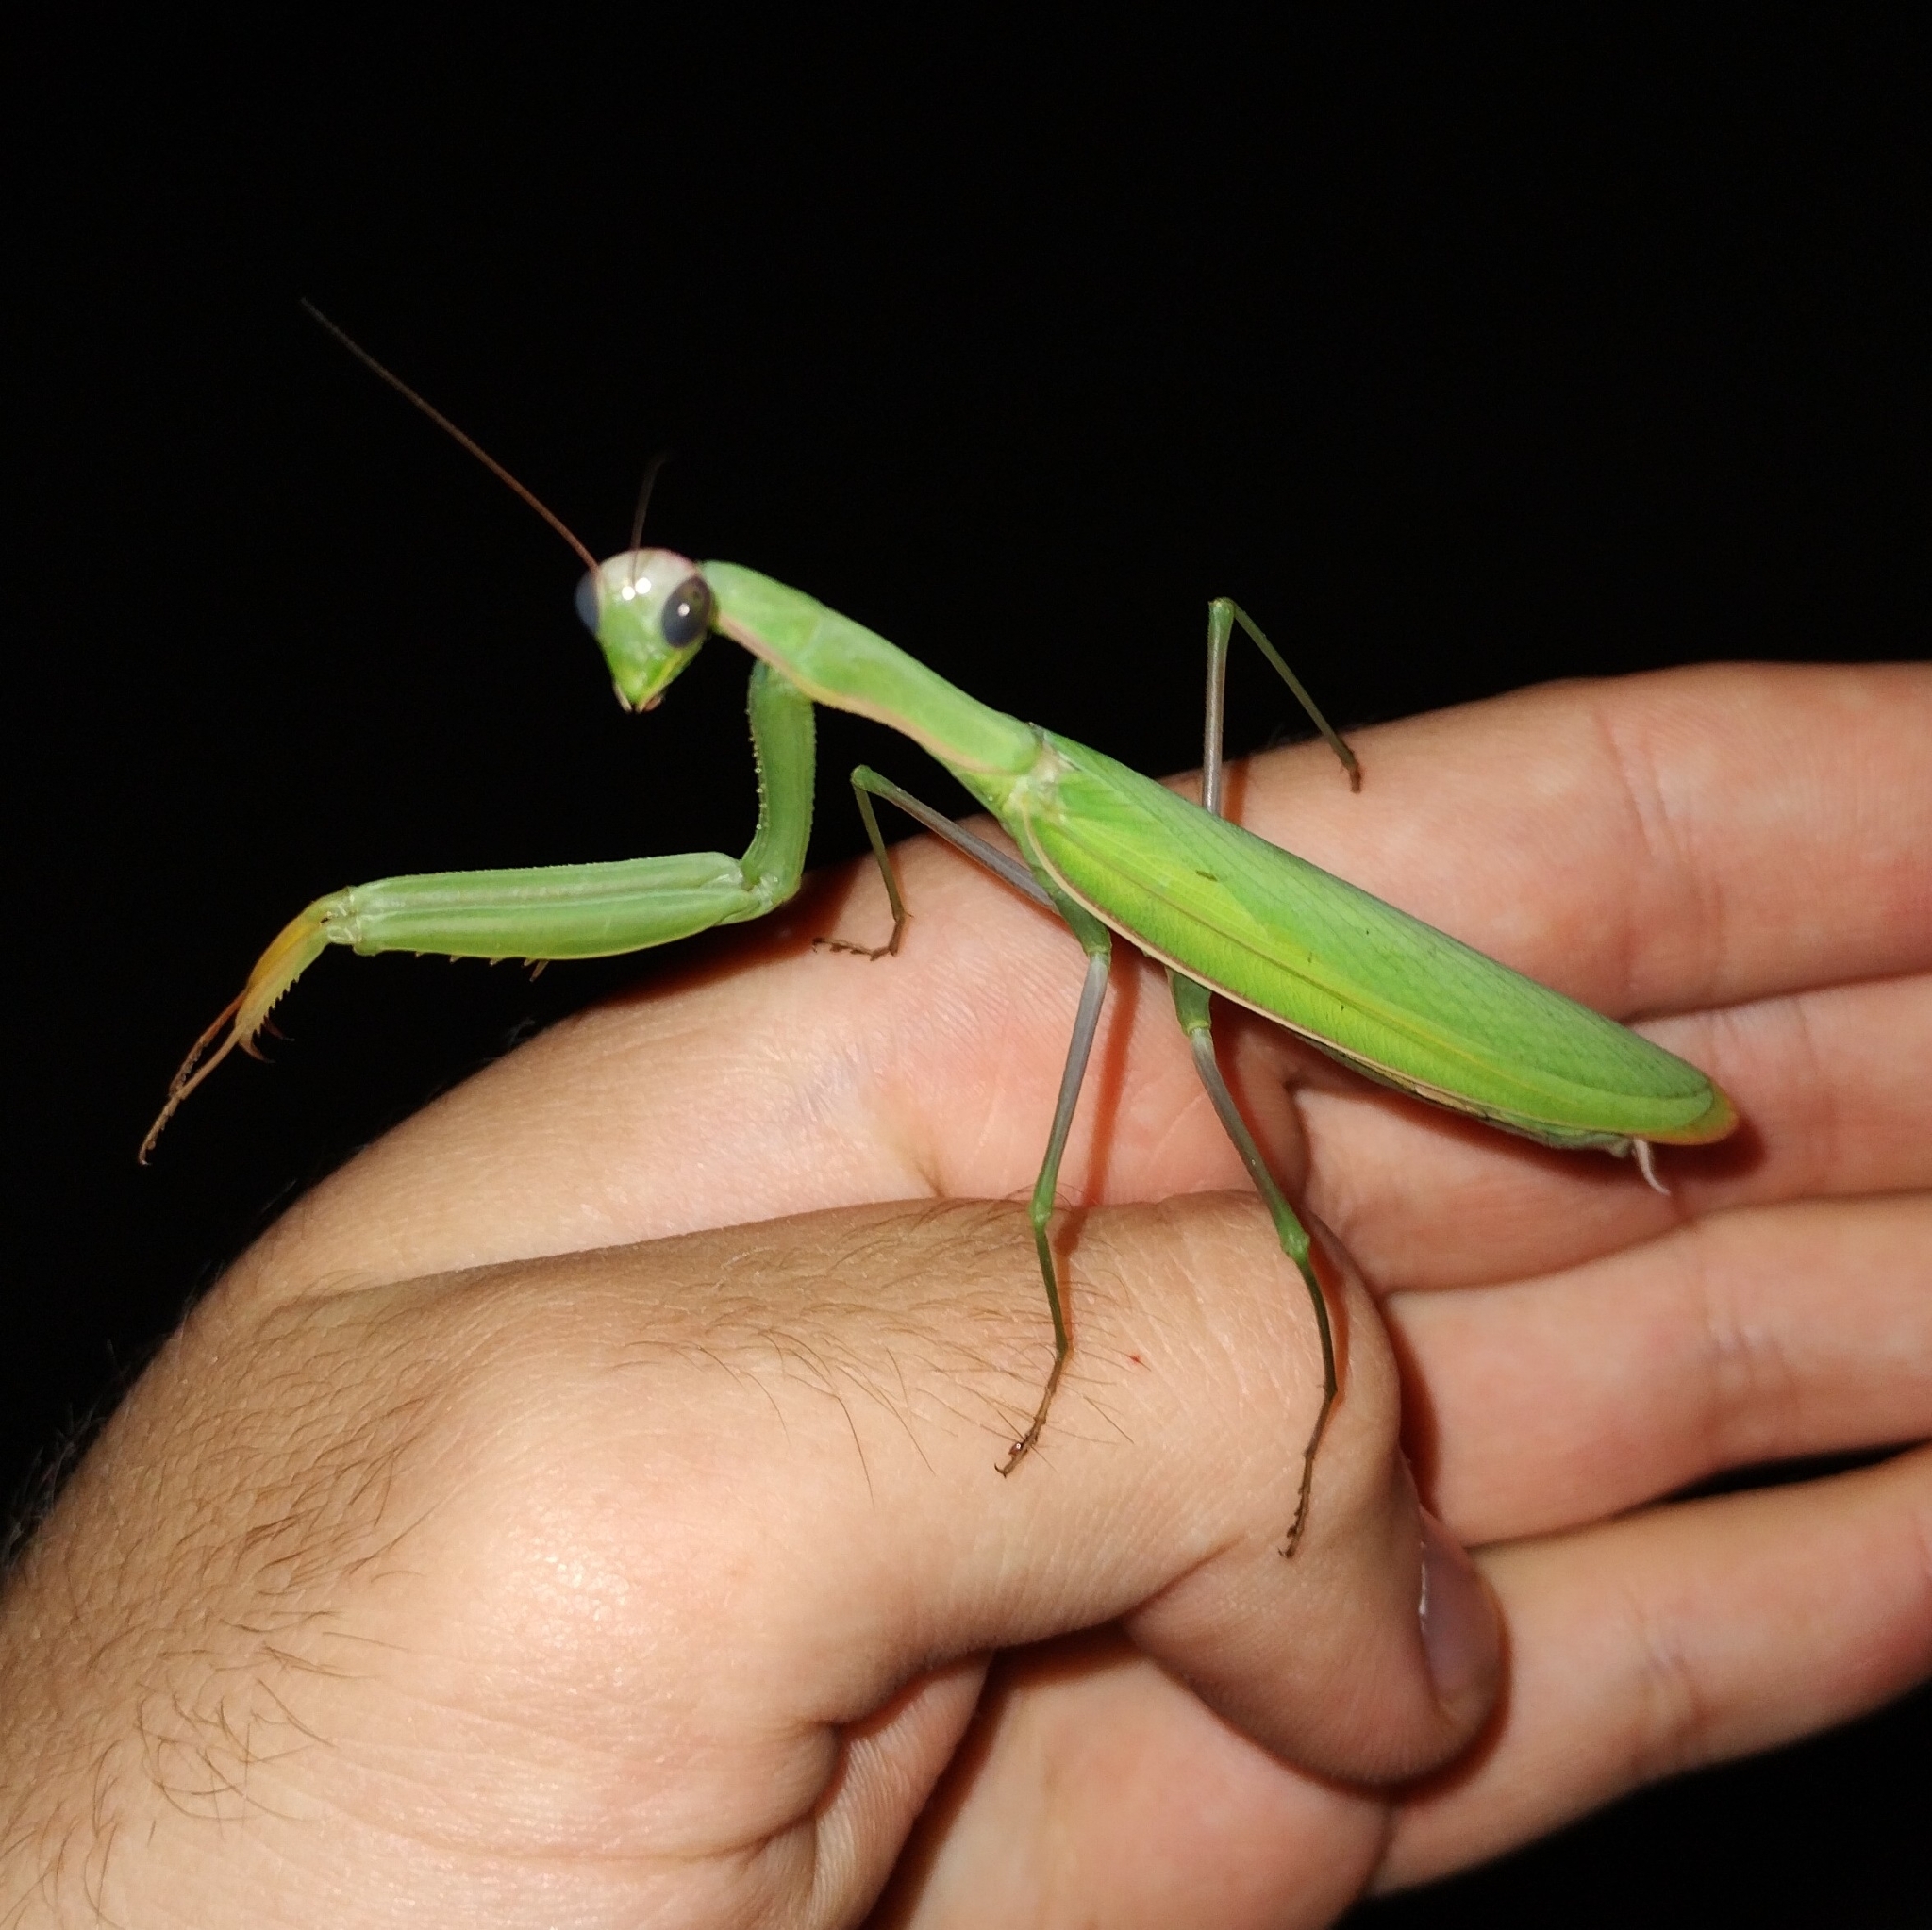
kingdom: Animalia
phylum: Arthropoda
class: Insecta
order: Mantodea
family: Mantidae
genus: Mantis
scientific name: Mantis religiosa
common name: Praying mantis
